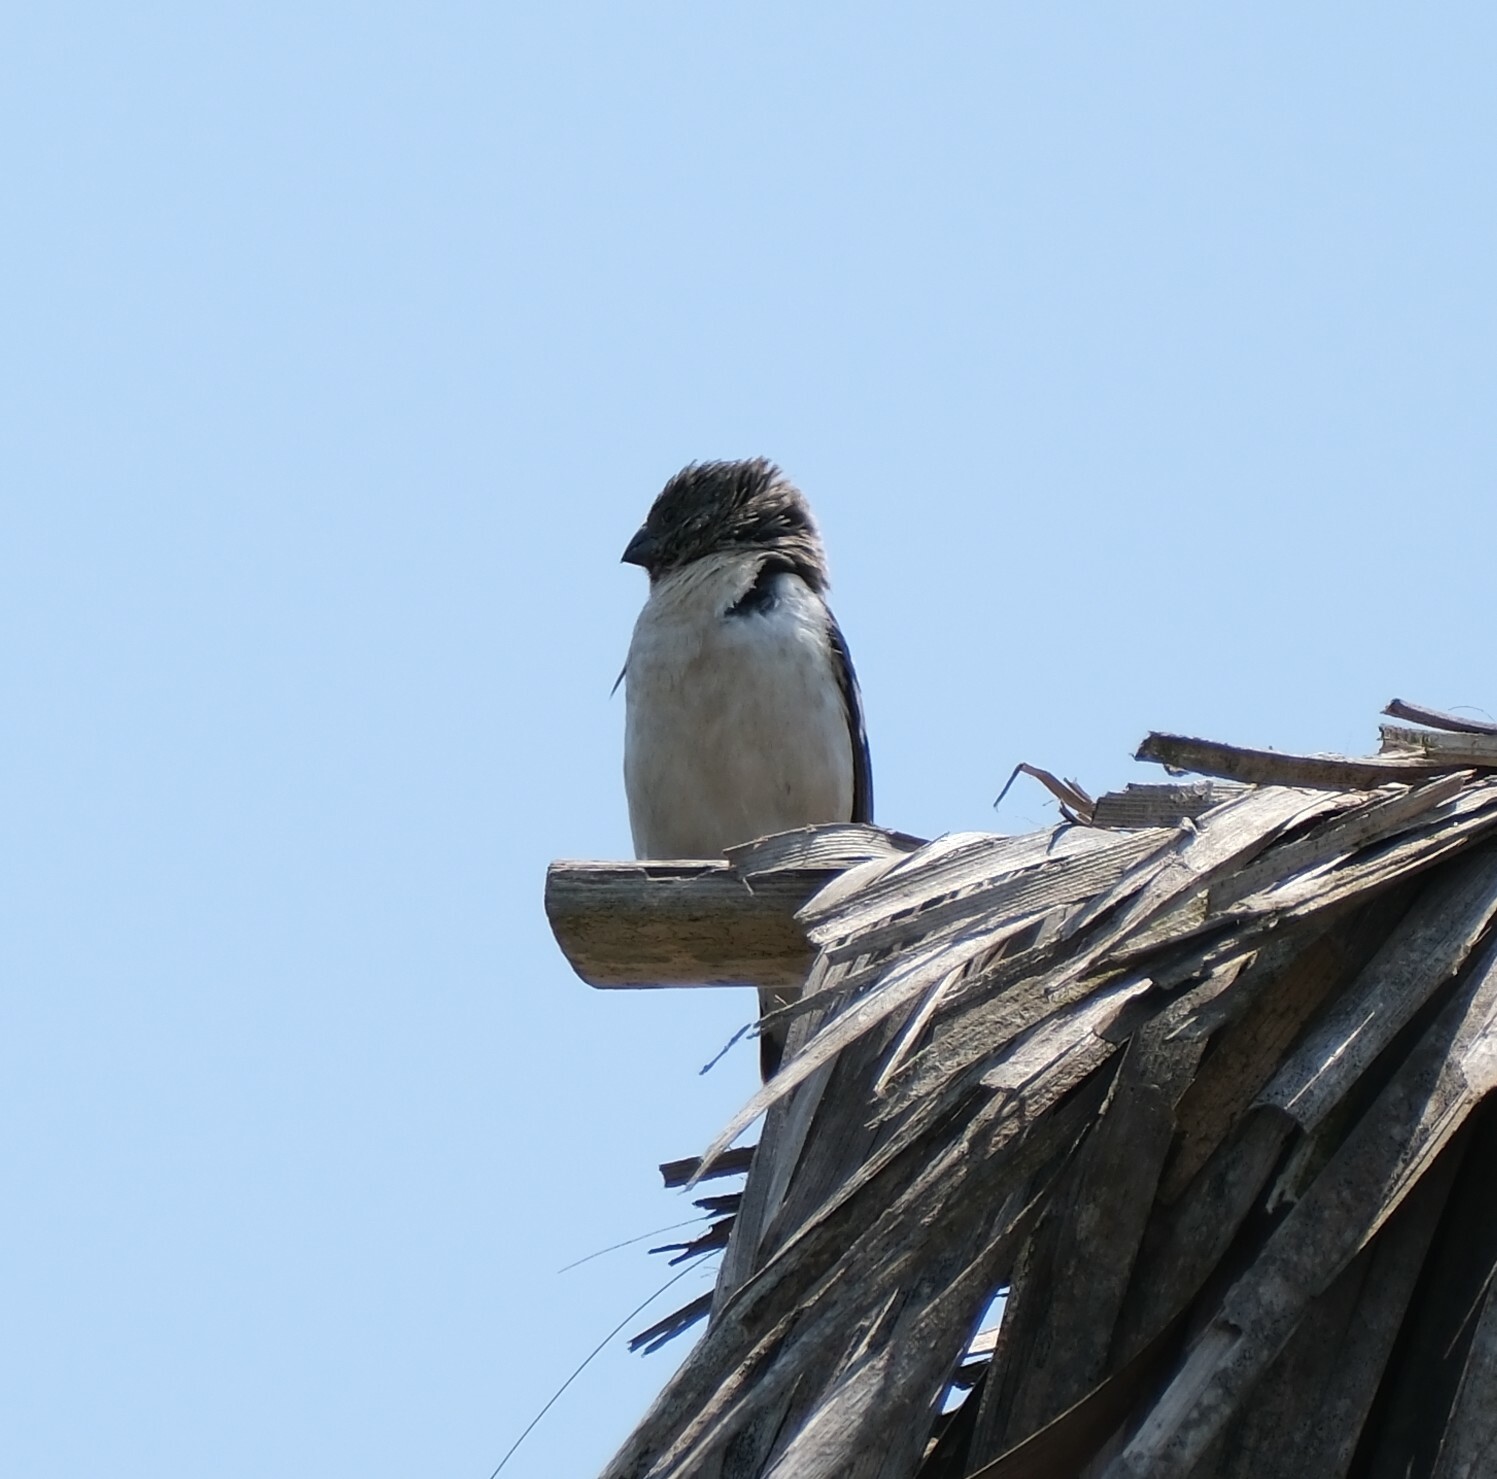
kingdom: Animalia
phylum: Chordata
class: Aves
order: Passeriformes
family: Thraupidae
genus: Sporophila
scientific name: Sporophila telasco
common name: Chestnut-throated seedeater
